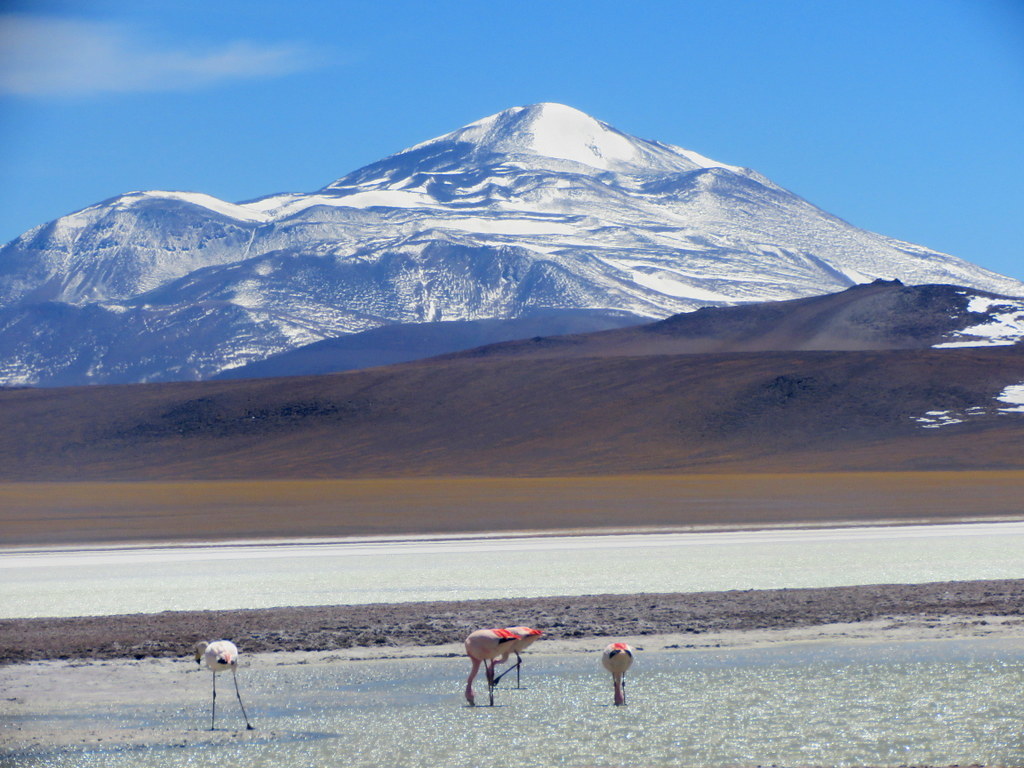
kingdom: Animalia
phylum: Chordata
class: Aves
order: Phoenicopteriformes
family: Phoenicopteridae
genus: Phoenicoparrus
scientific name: Phoenicoparrus jamesi
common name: James's flamingo
